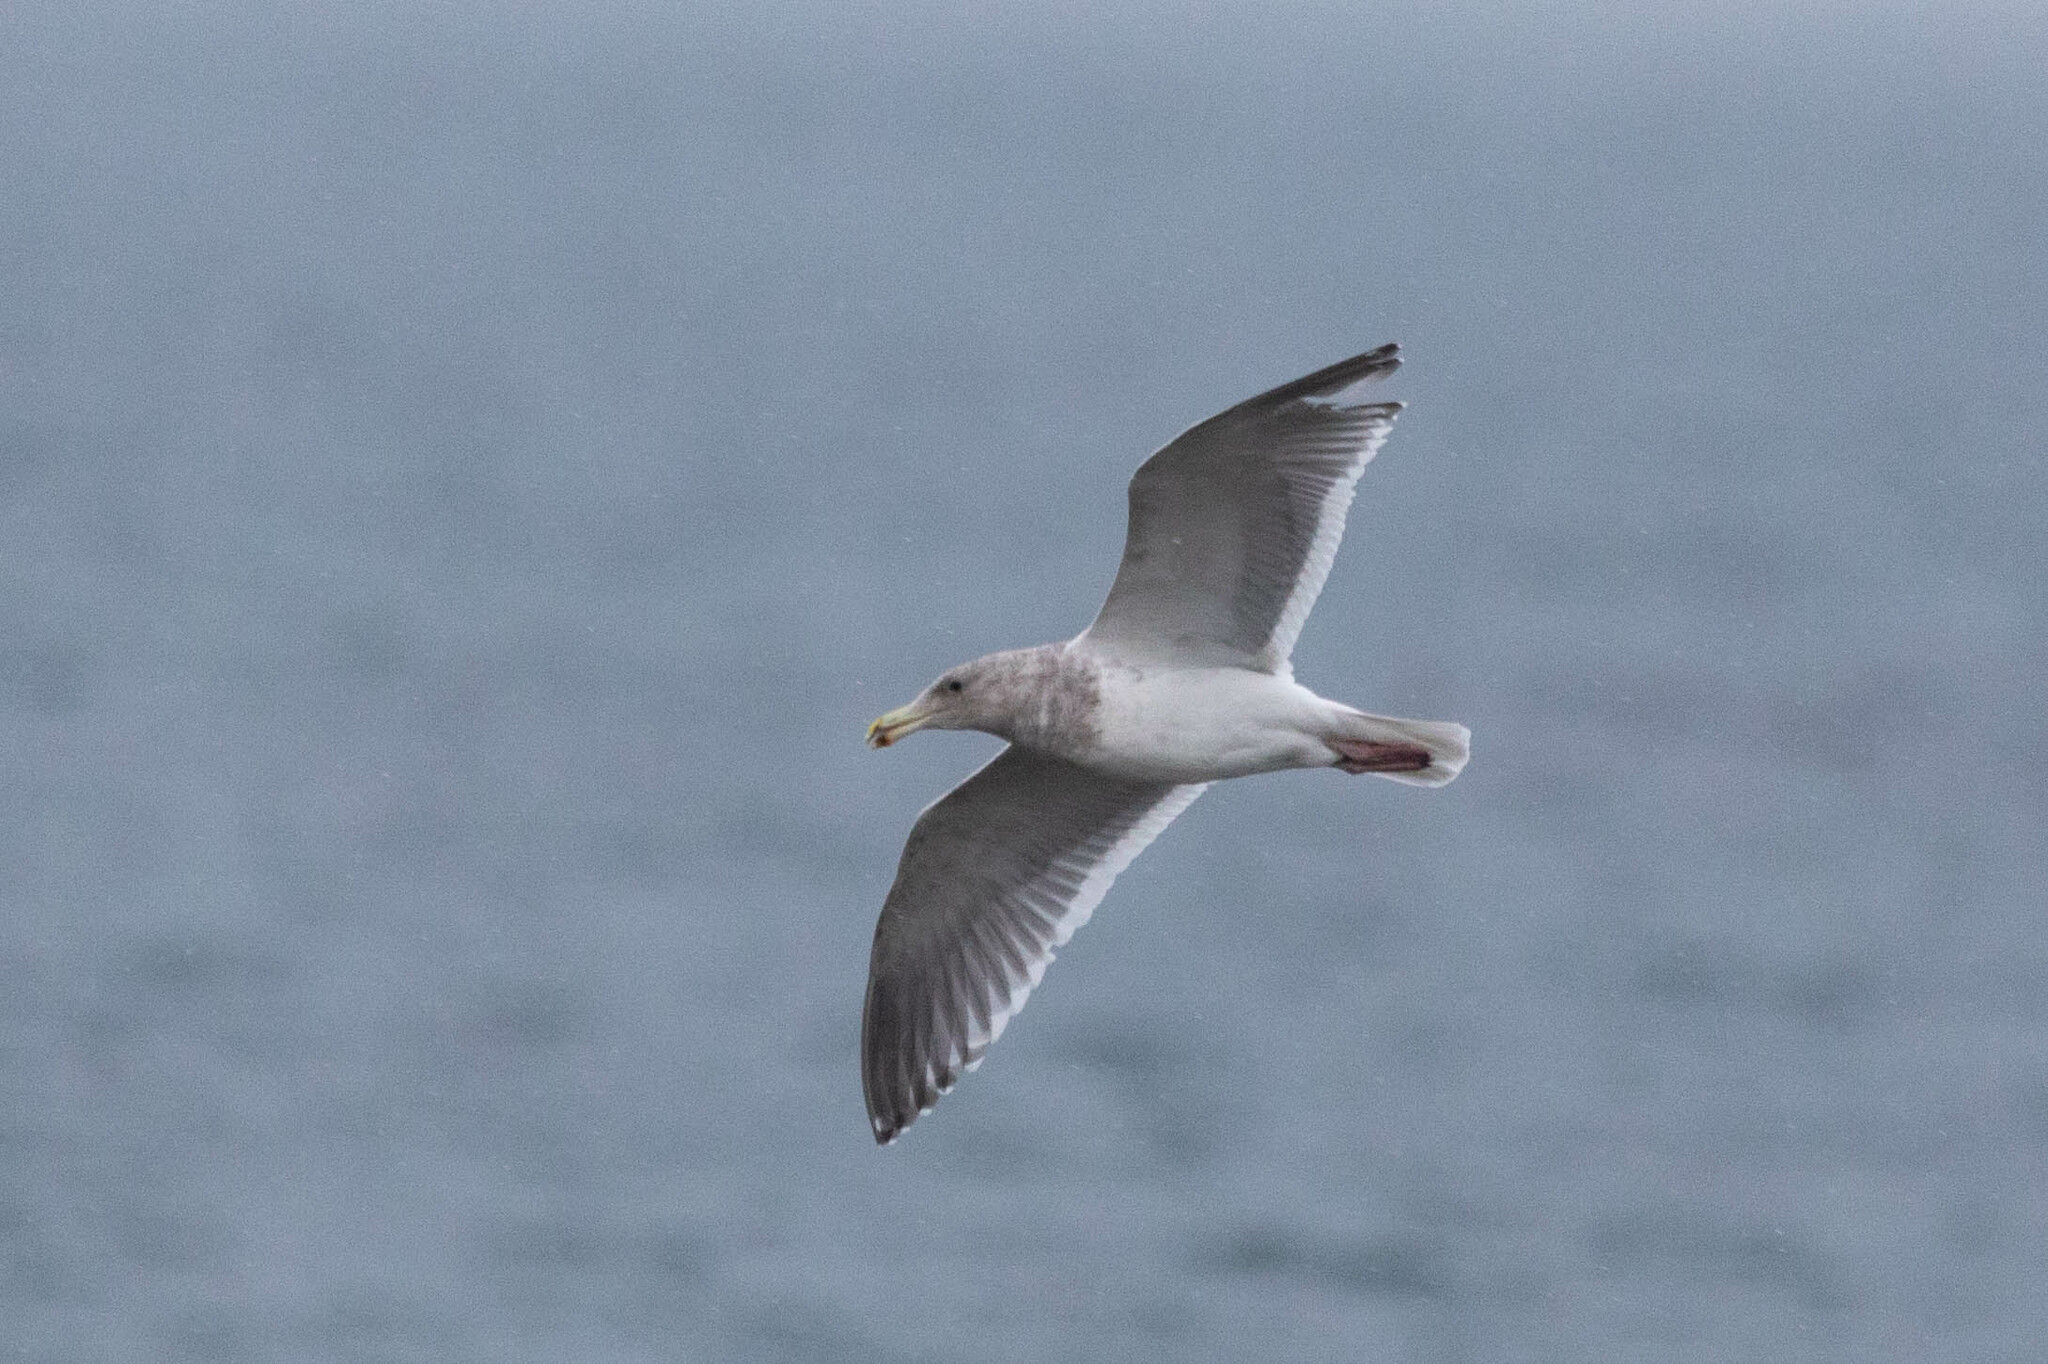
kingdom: Animalia
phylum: Chordata
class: Aves
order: Charadriiformes
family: Laridae
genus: Larus
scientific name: Larus
